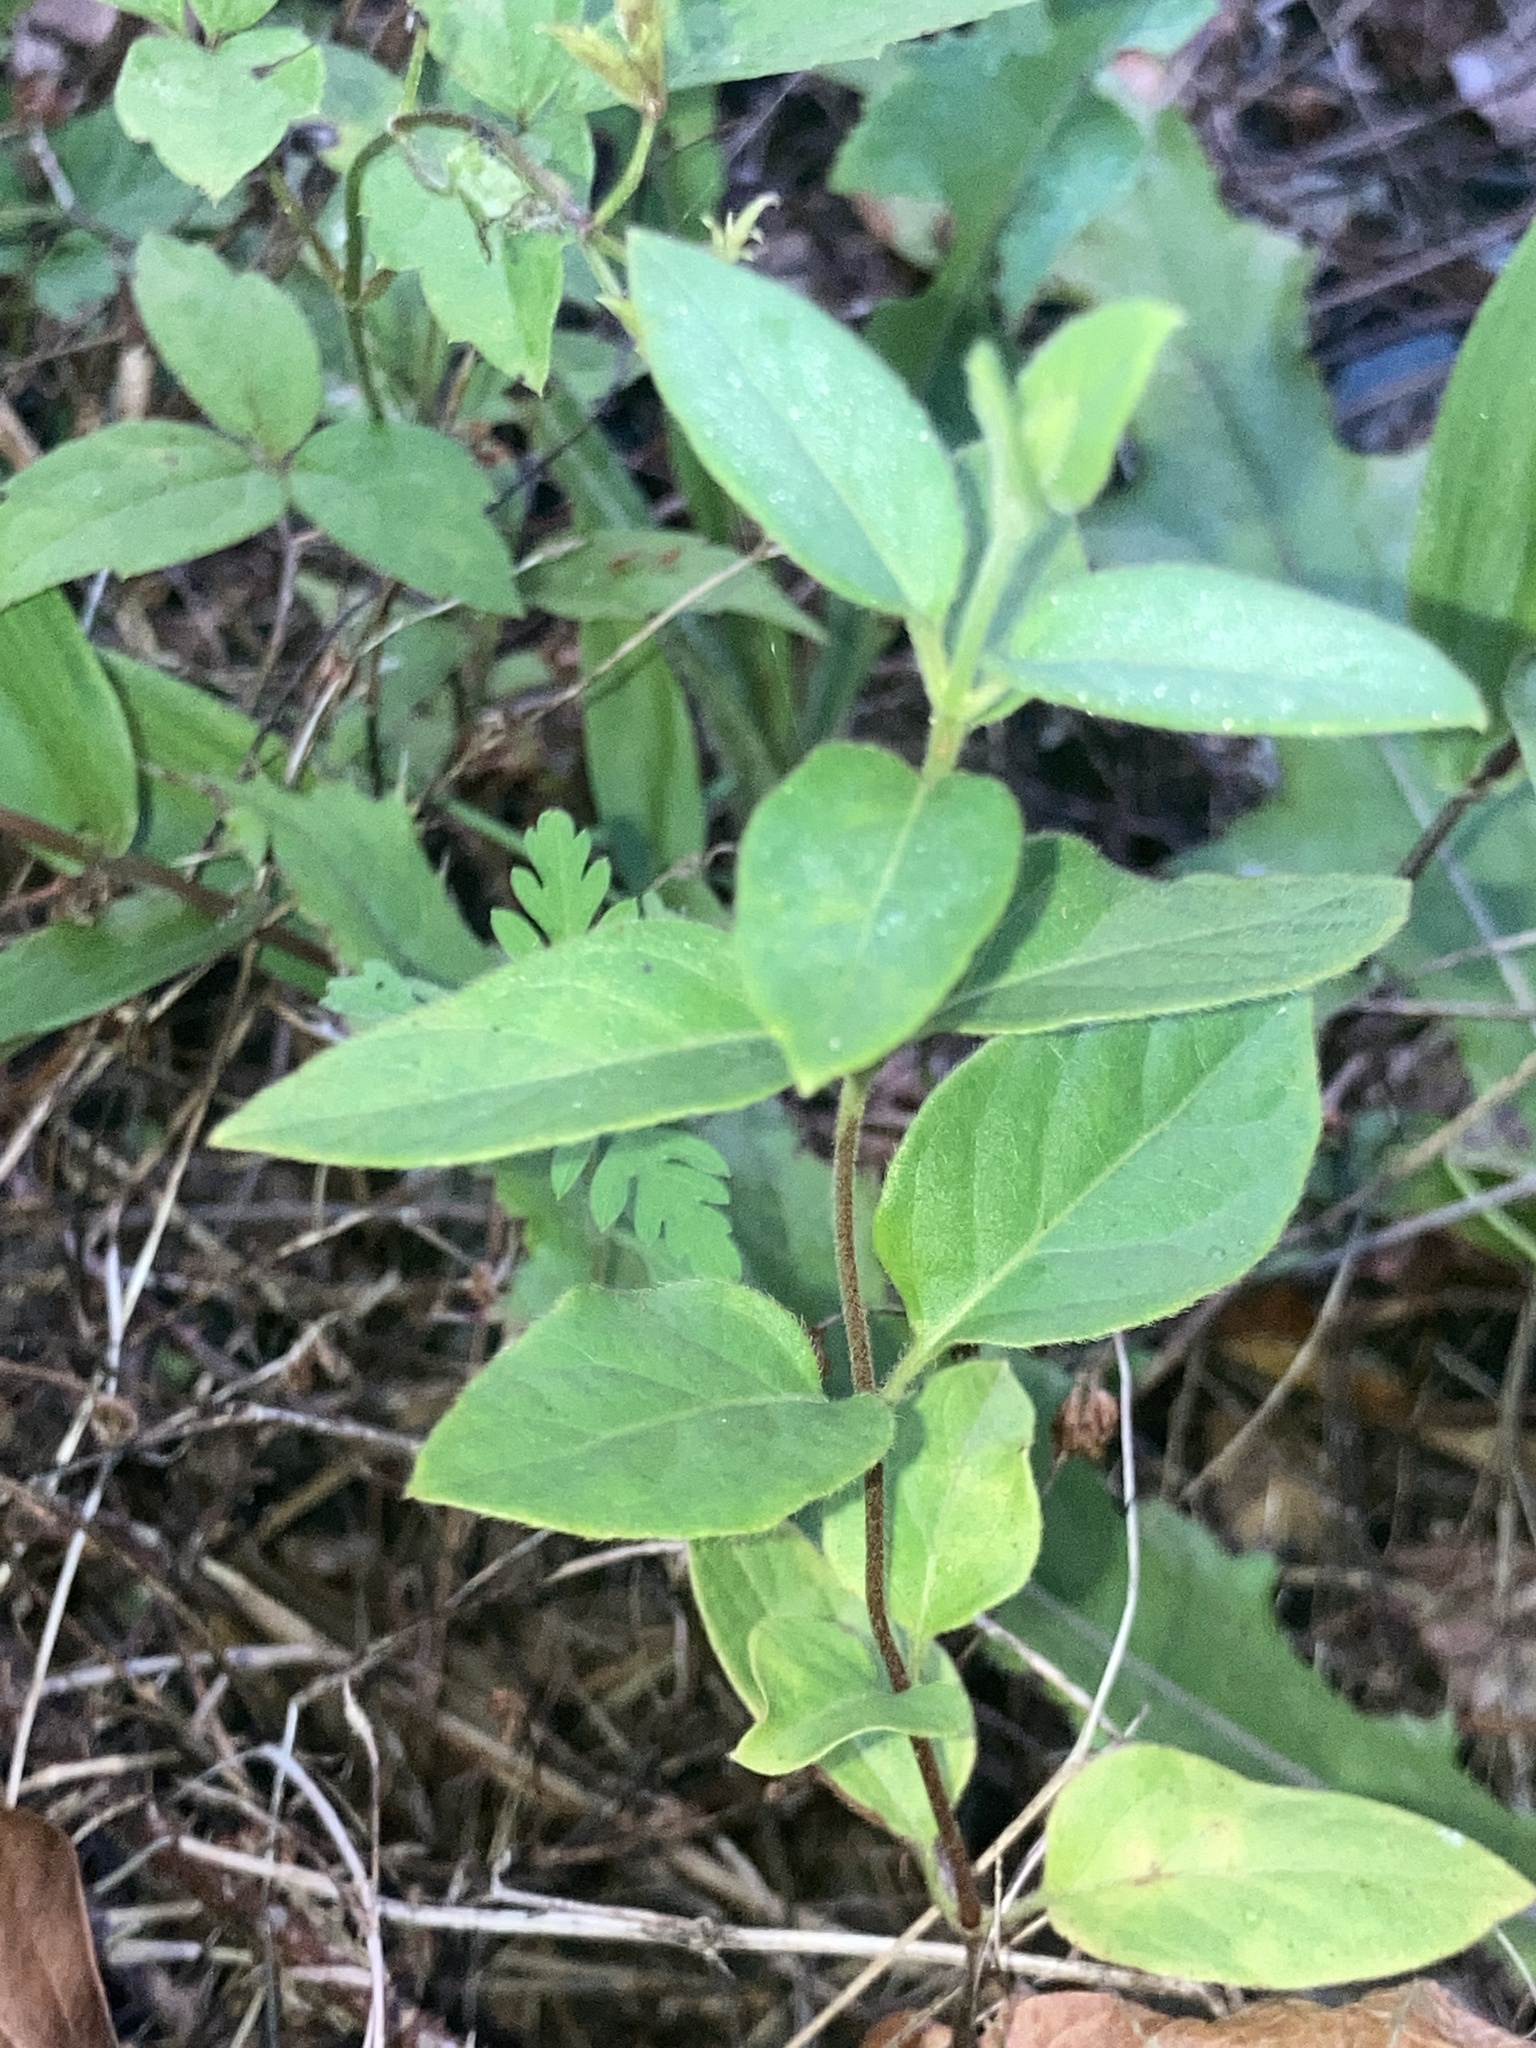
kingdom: Plantae
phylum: Tracheophyta
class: Magnoliopsida
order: Dipsacales
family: Caprifoliaceae
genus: Lonicera
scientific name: Lonicera japonica
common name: Japanese honeysuckle
